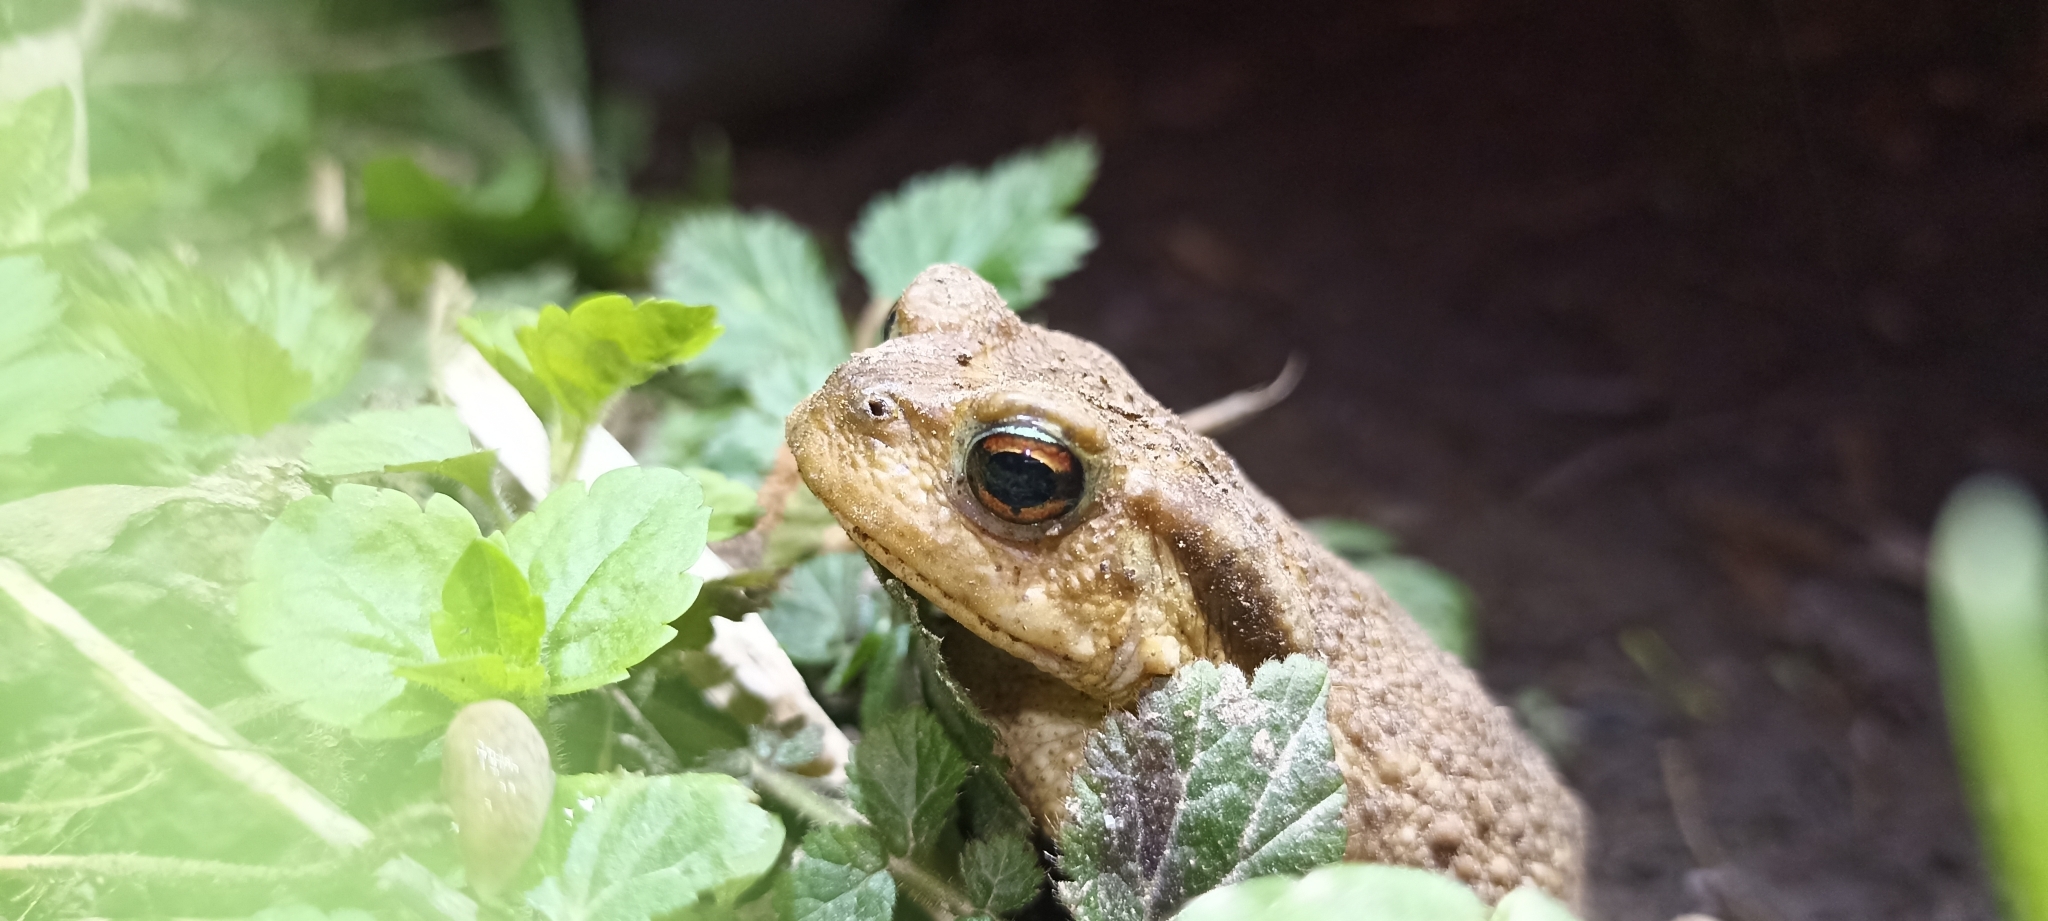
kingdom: Animalia
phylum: Chordata
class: Amphibia
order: Anura
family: Bufonidae
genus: Bufo
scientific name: Bufo spinosus
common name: Western common toad
